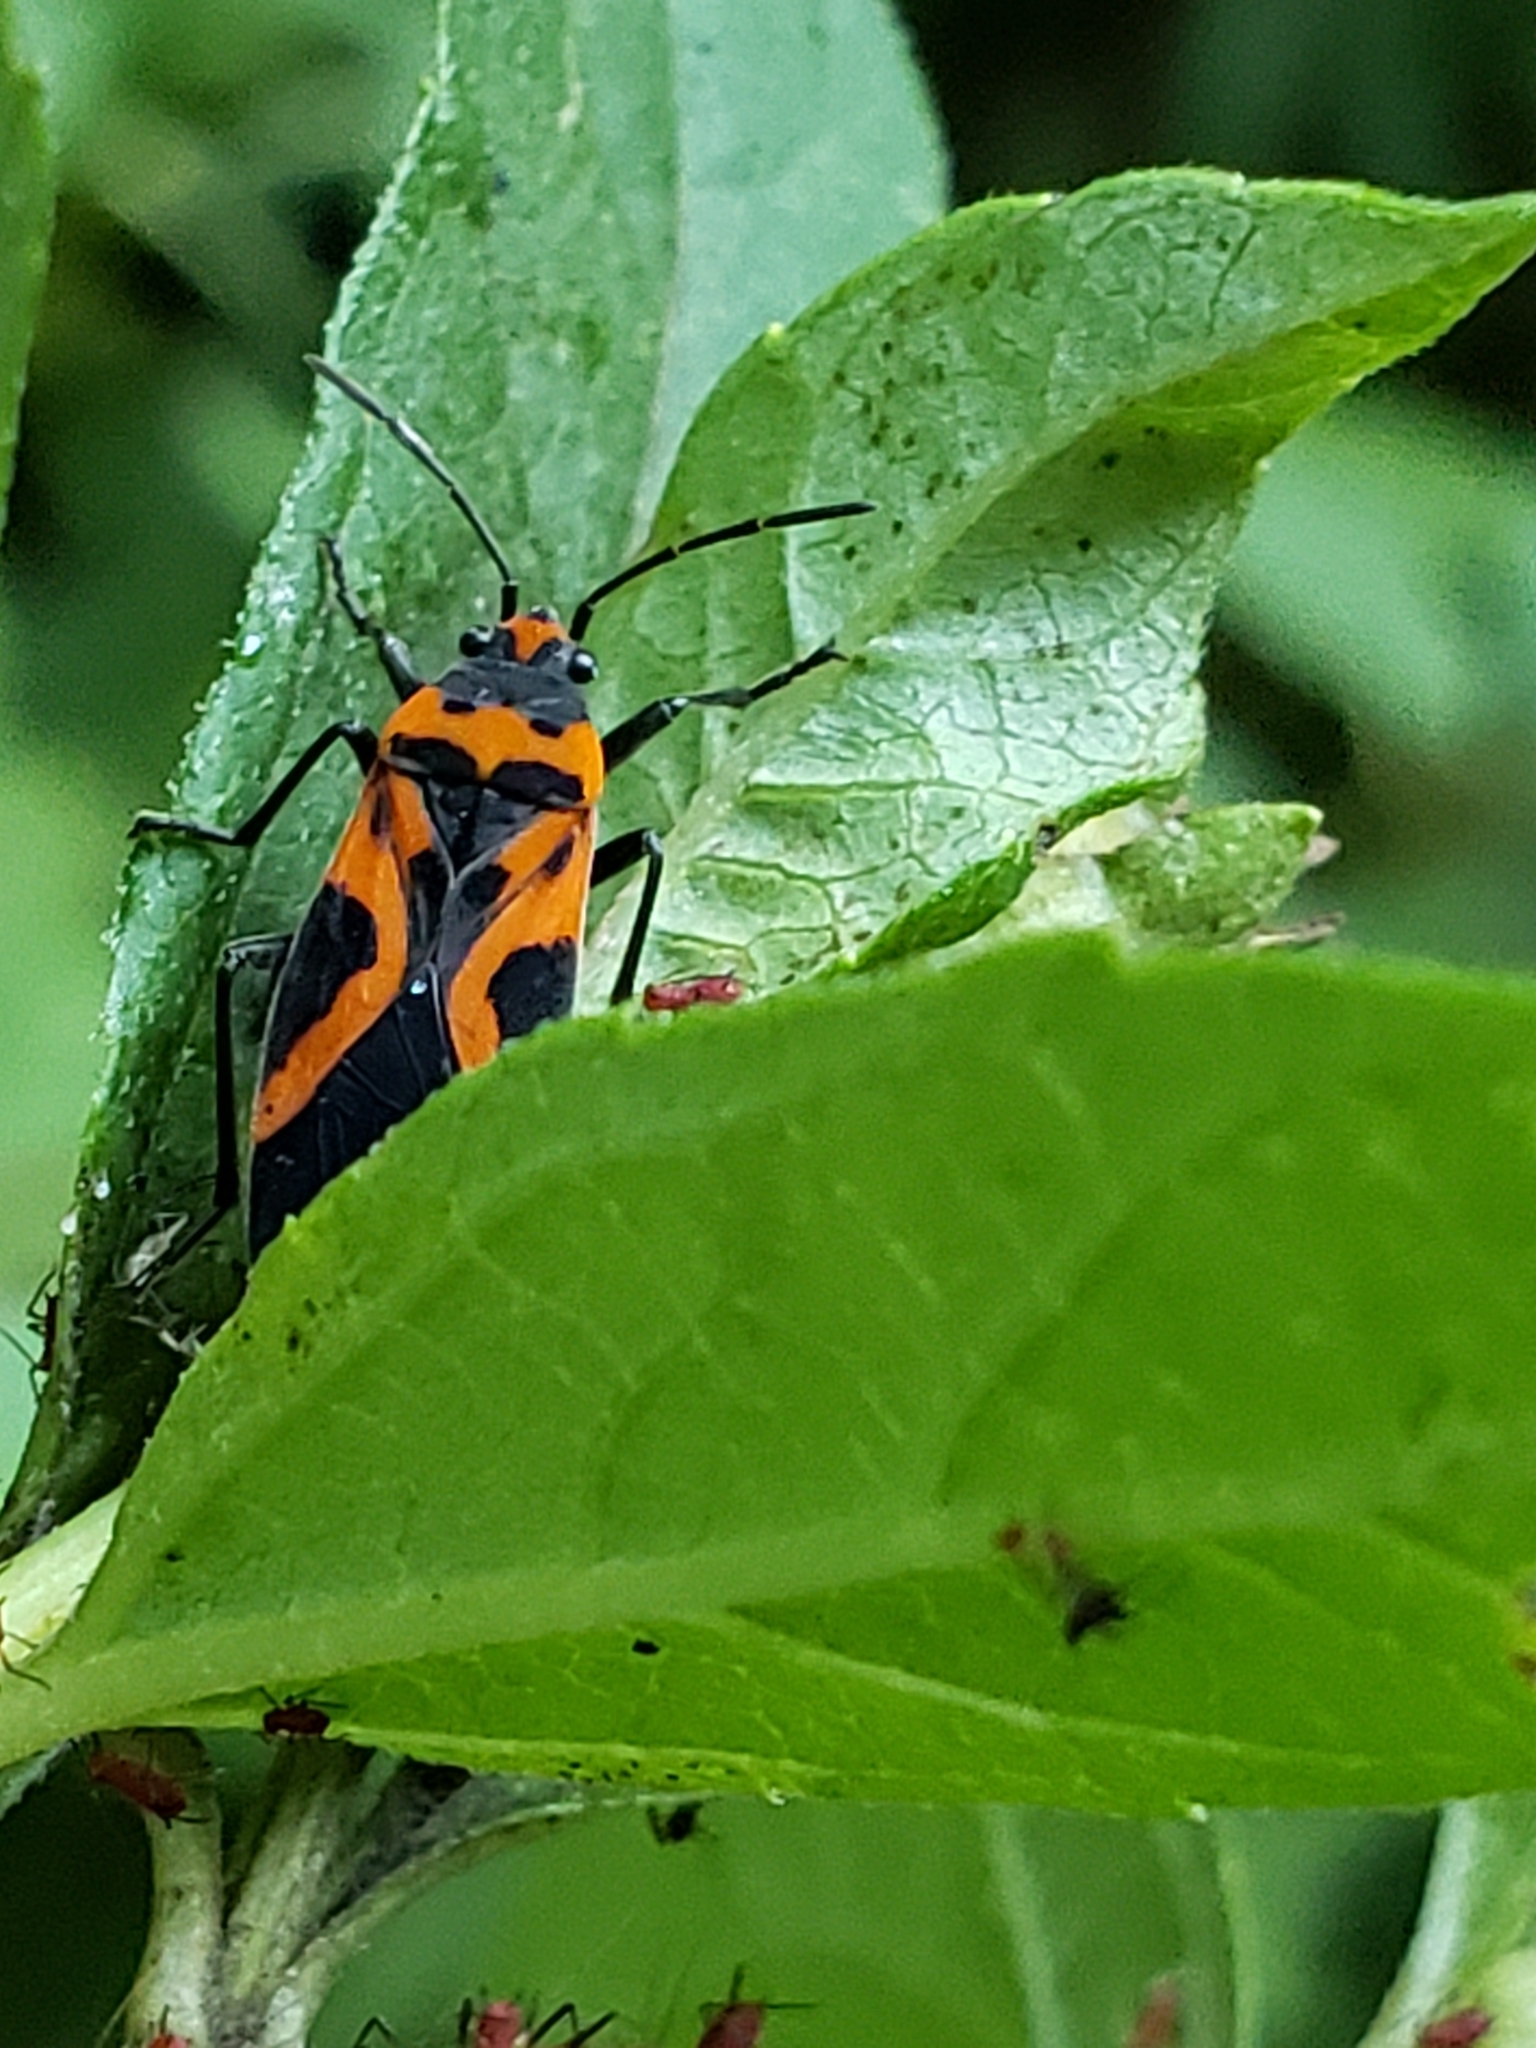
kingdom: Animalia
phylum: Arthropoda
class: Insecta
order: Hemiptera
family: Lygaeidae
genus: Lygaeus
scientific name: Lygaeus turcicus
